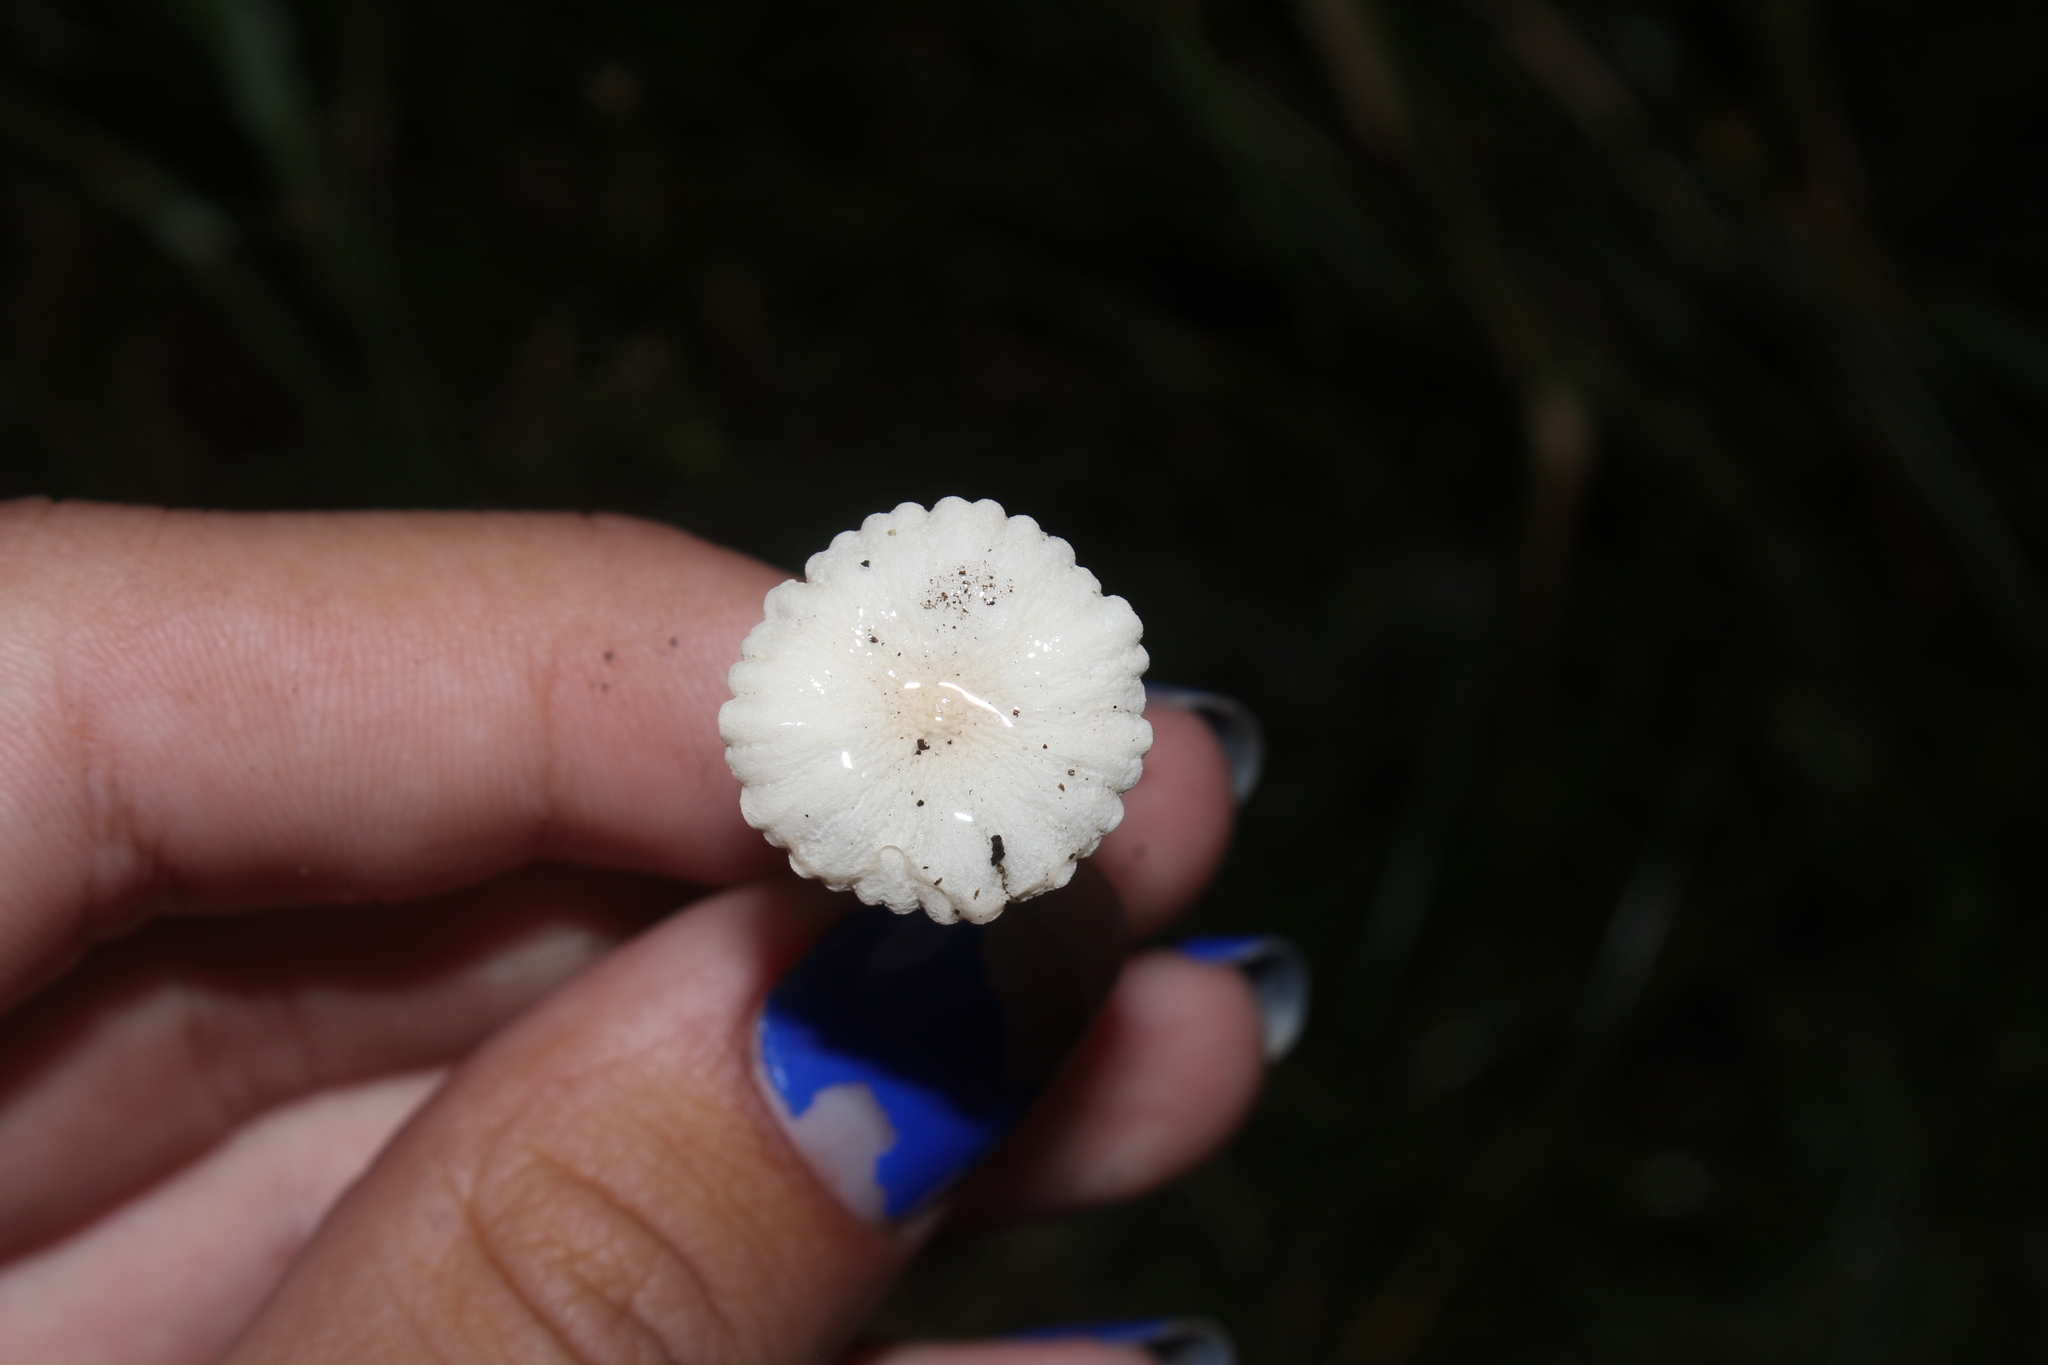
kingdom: Fungi
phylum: Basidiomycota
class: Agaricomycetes
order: Agaricales
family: Omphalotaceae
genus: Mycetinis
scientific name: Mycetinis opacus
